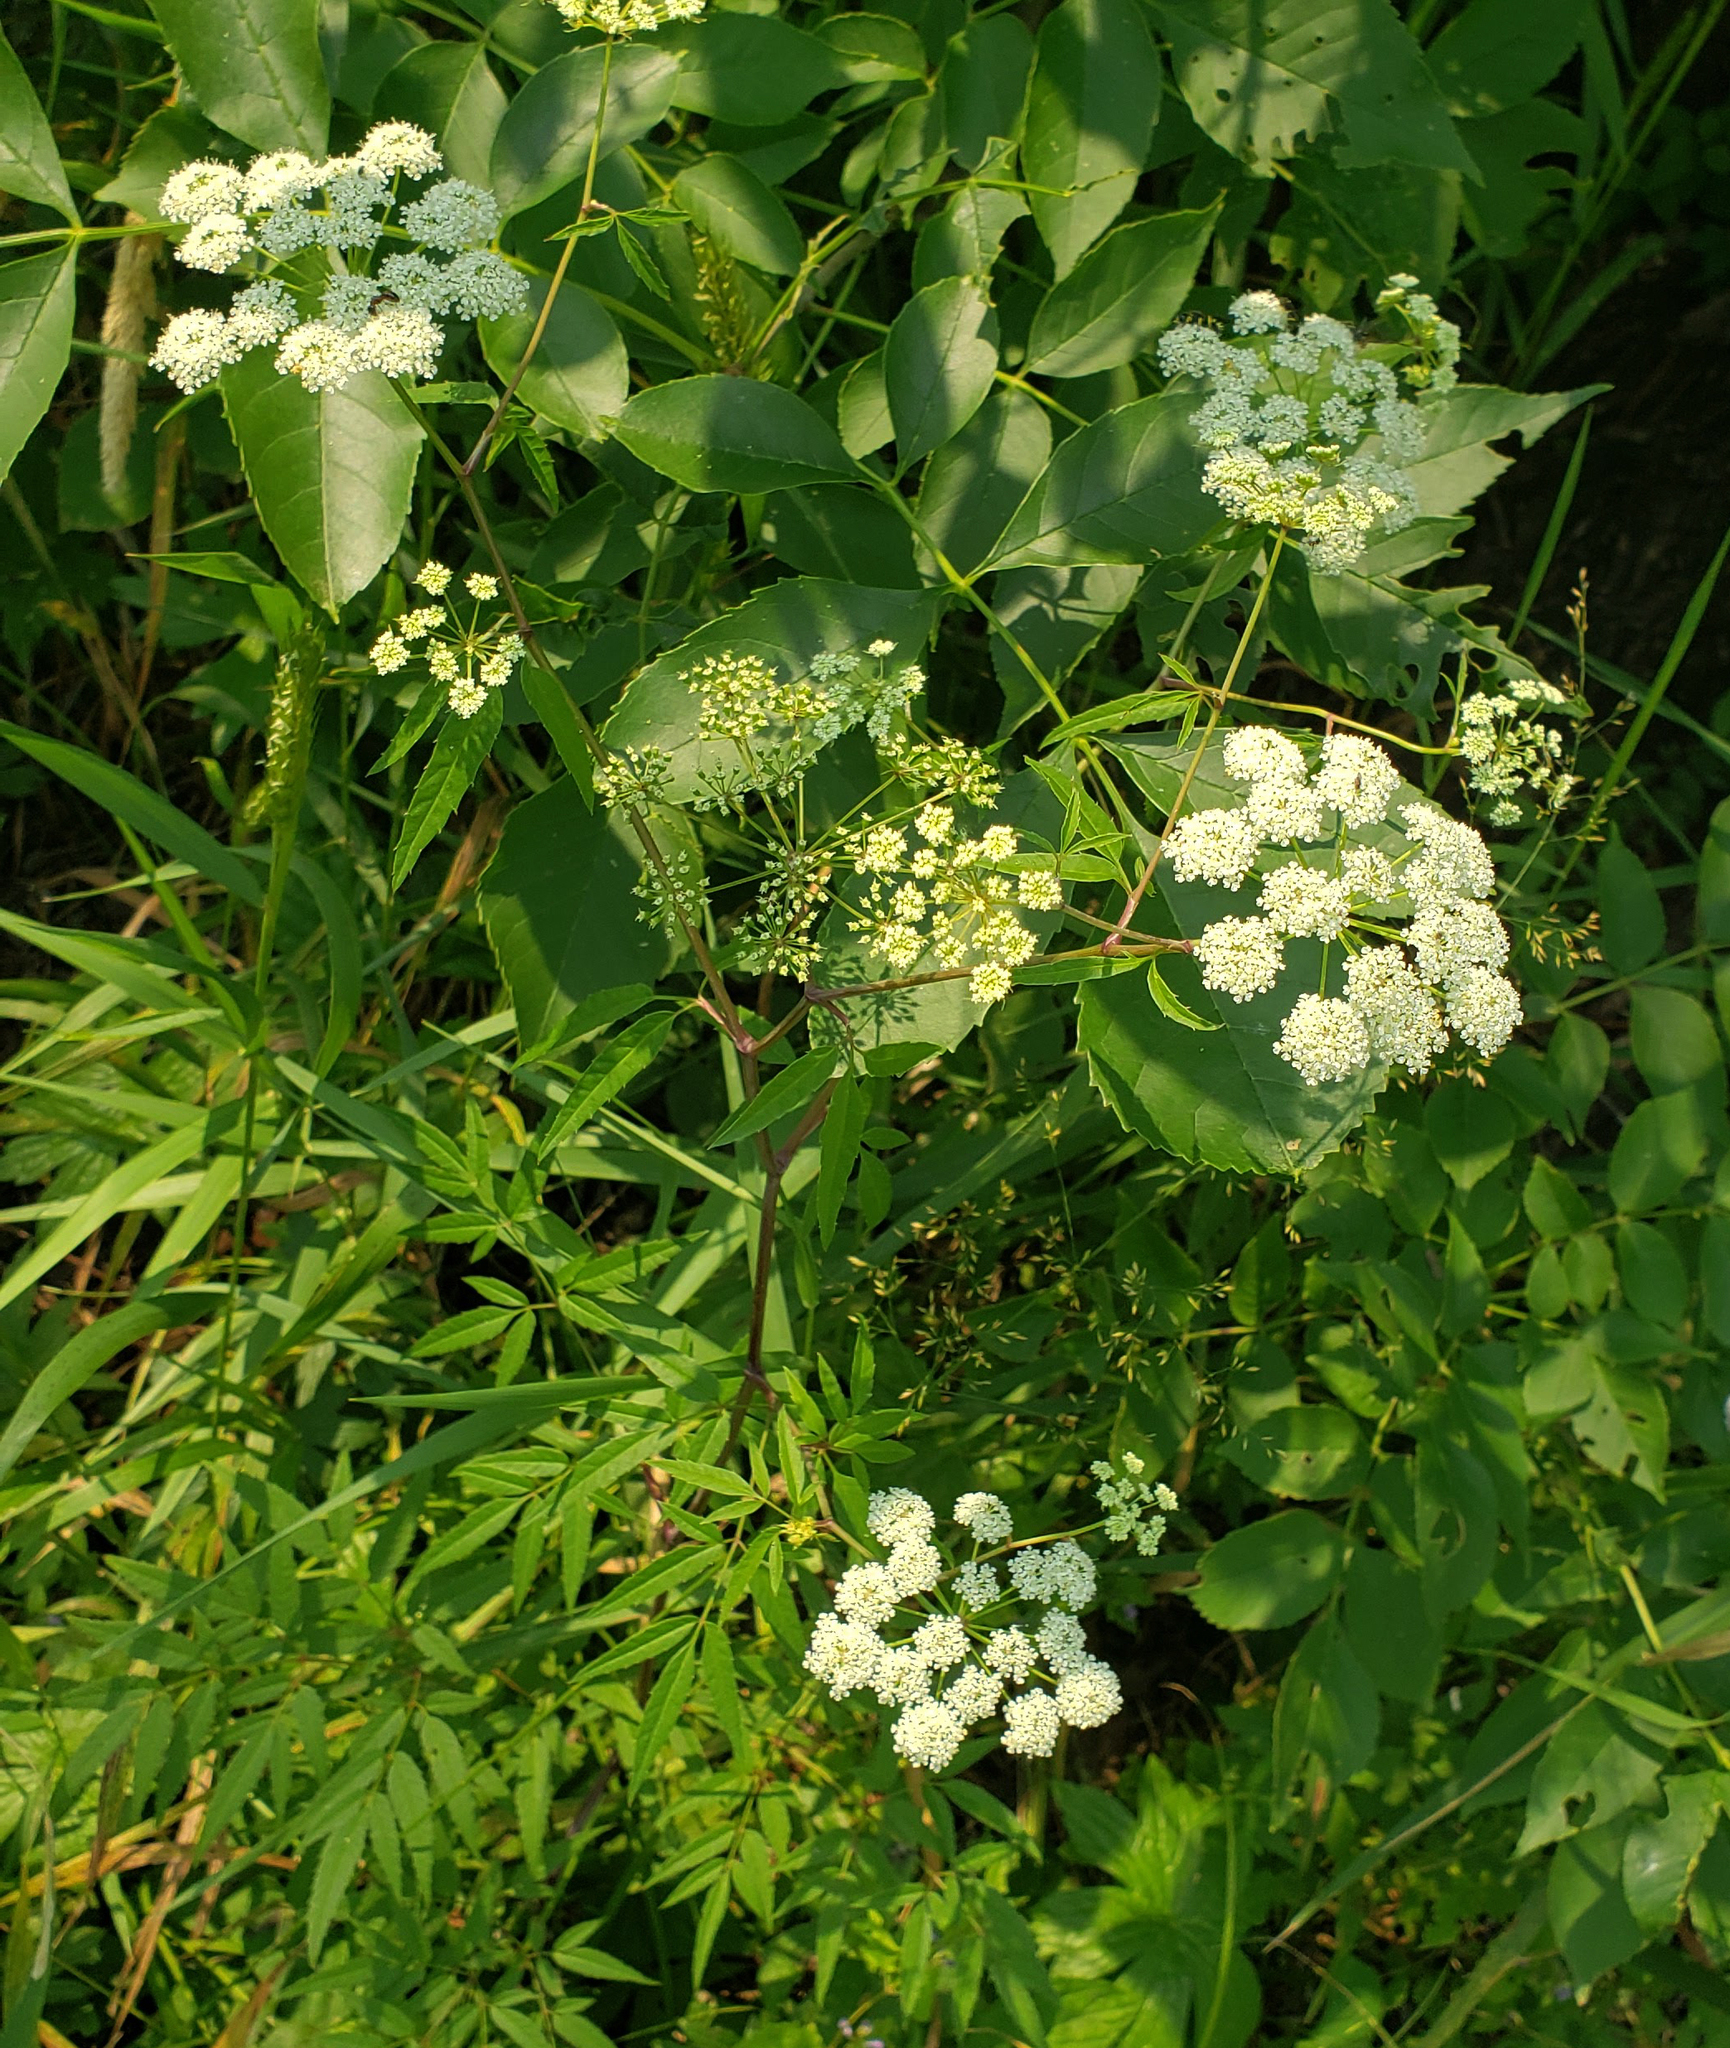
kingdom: Plantae
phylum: Tracheophyta
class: Magnoliopsida
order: Apiales
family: Apiaceae
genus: Cicuta
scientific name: Cicuta maculata
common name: Spotted cowbane
